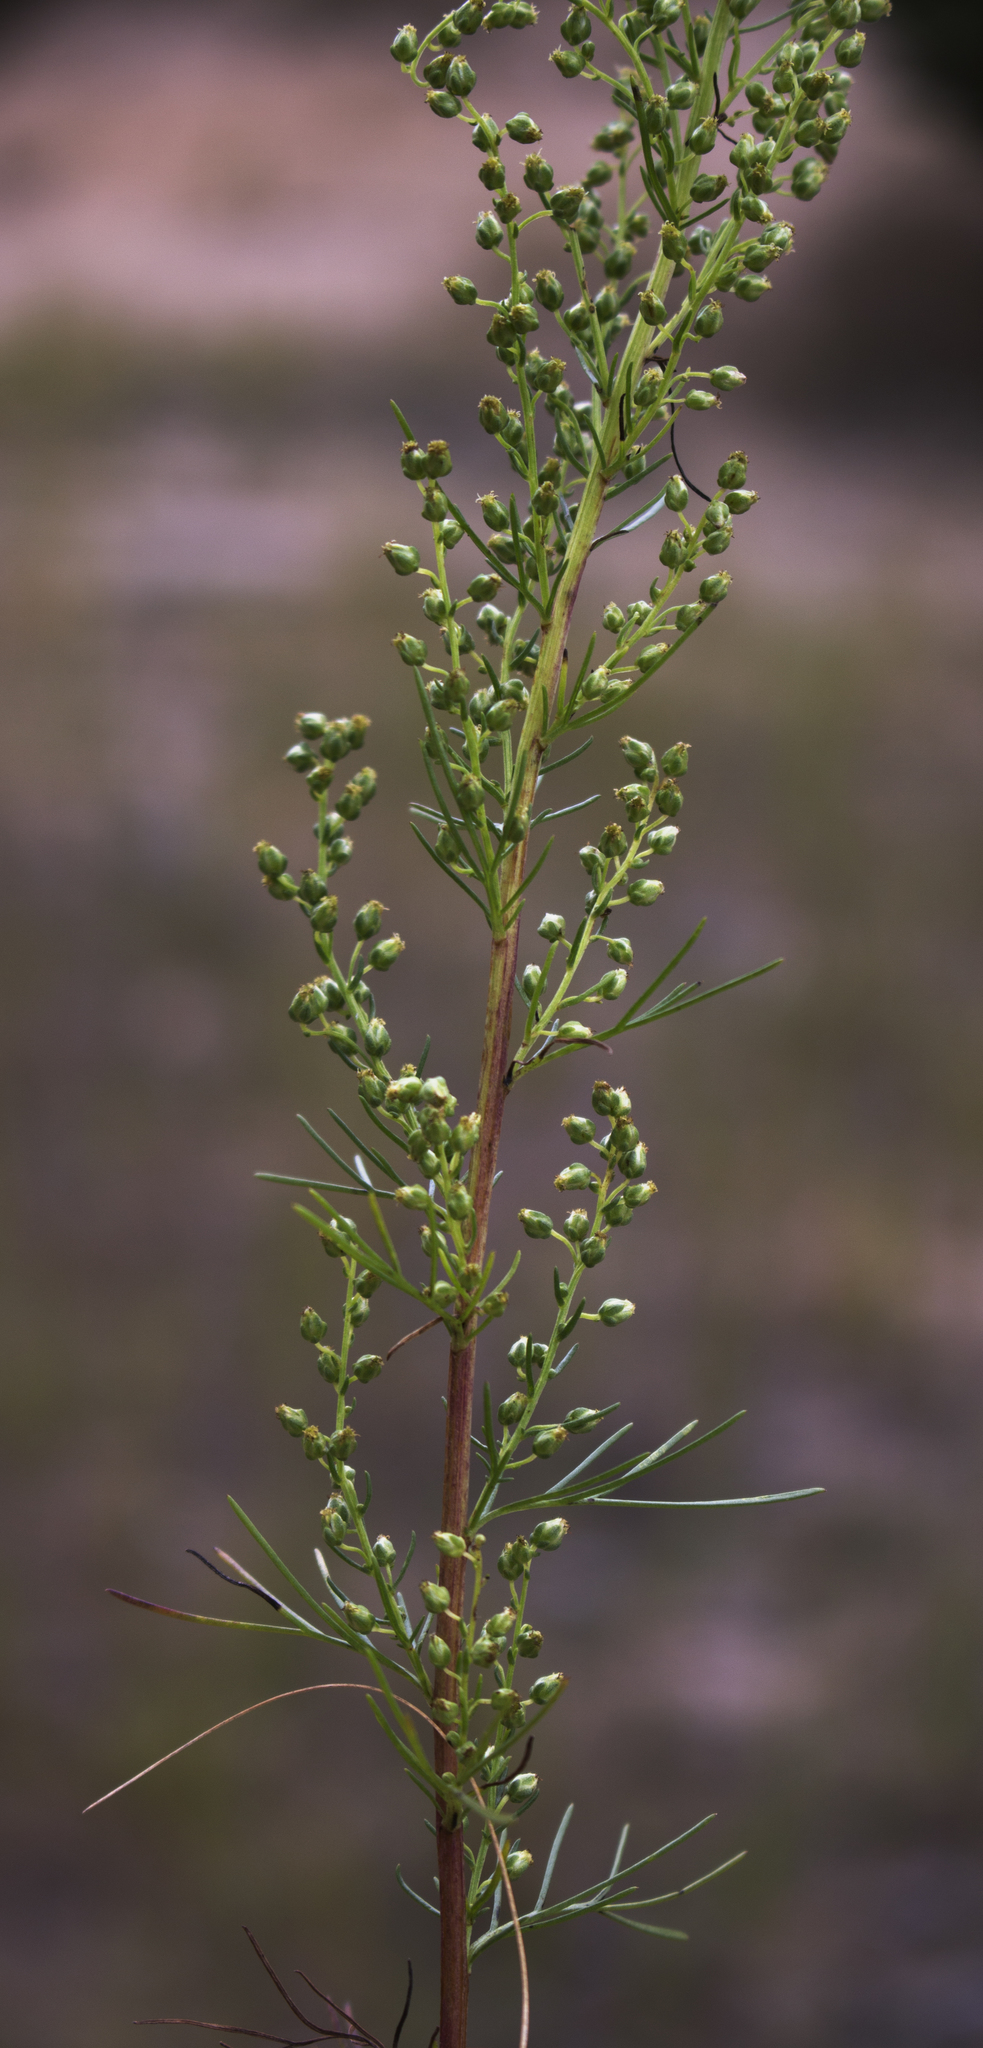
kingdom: Plantae
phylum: Tracheophyta
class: Magnoliopsida
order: Asterales
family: Asteraceae
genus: Artemisia
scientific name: Artemisia campestris
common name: Field wormwood
